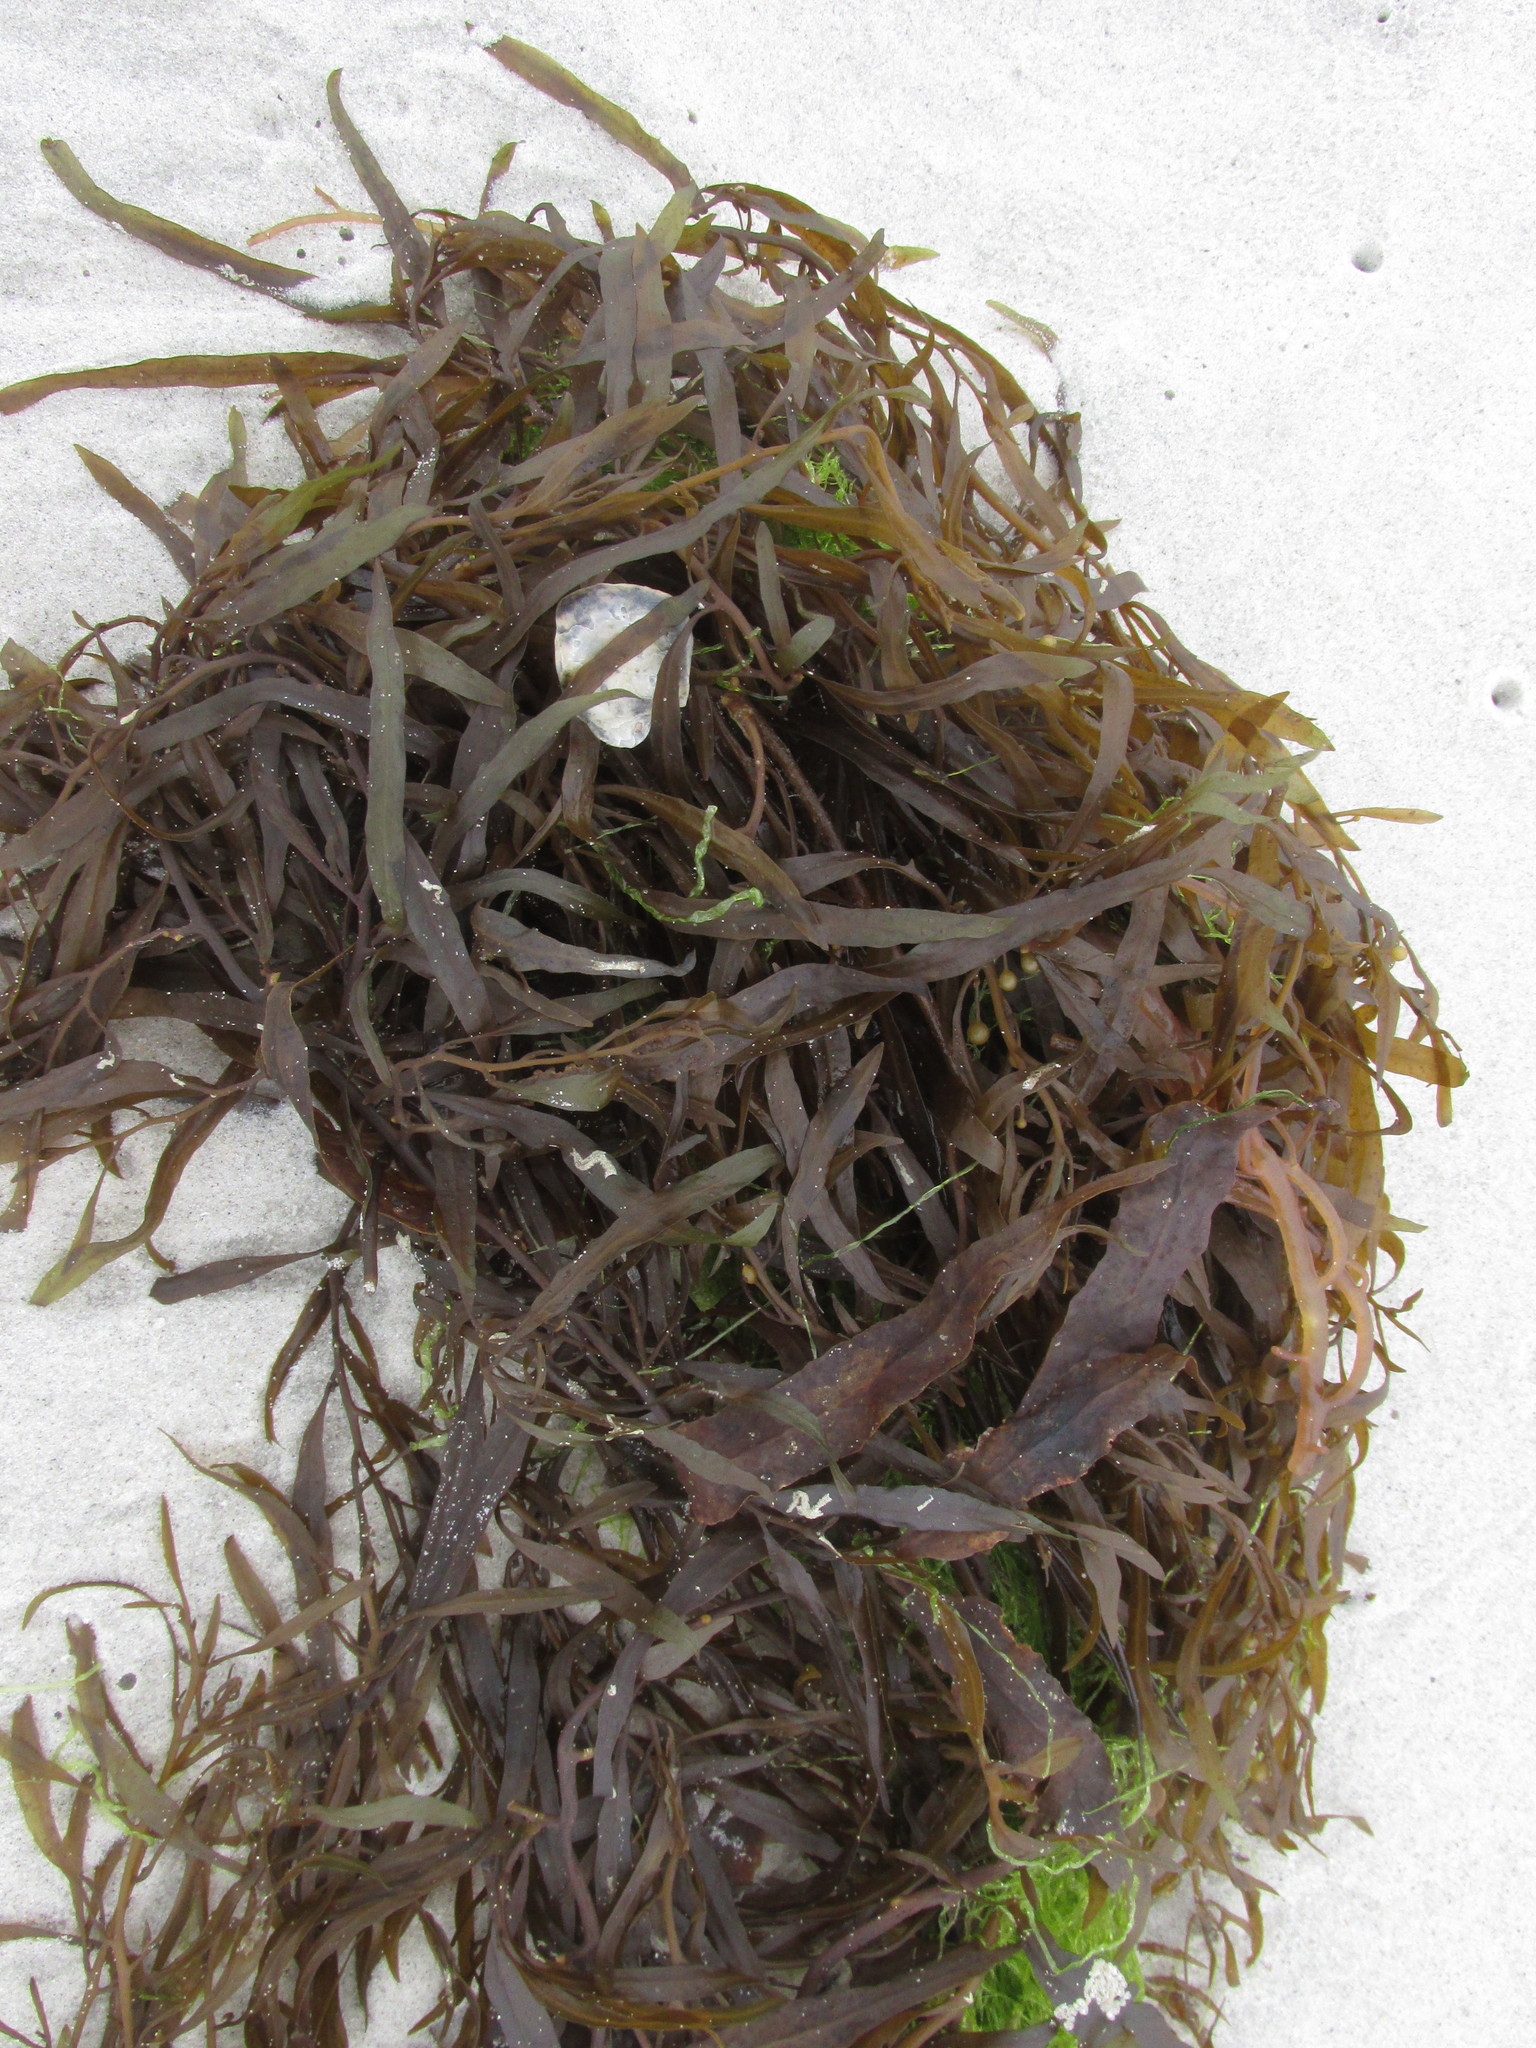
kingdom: Chromista
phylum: Ochrophyta
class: Phaeophyceae
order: Fucales
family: Sargassaceae
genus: Sargassum
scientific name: Sargassum fluitans
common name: Sargassum seaweed
